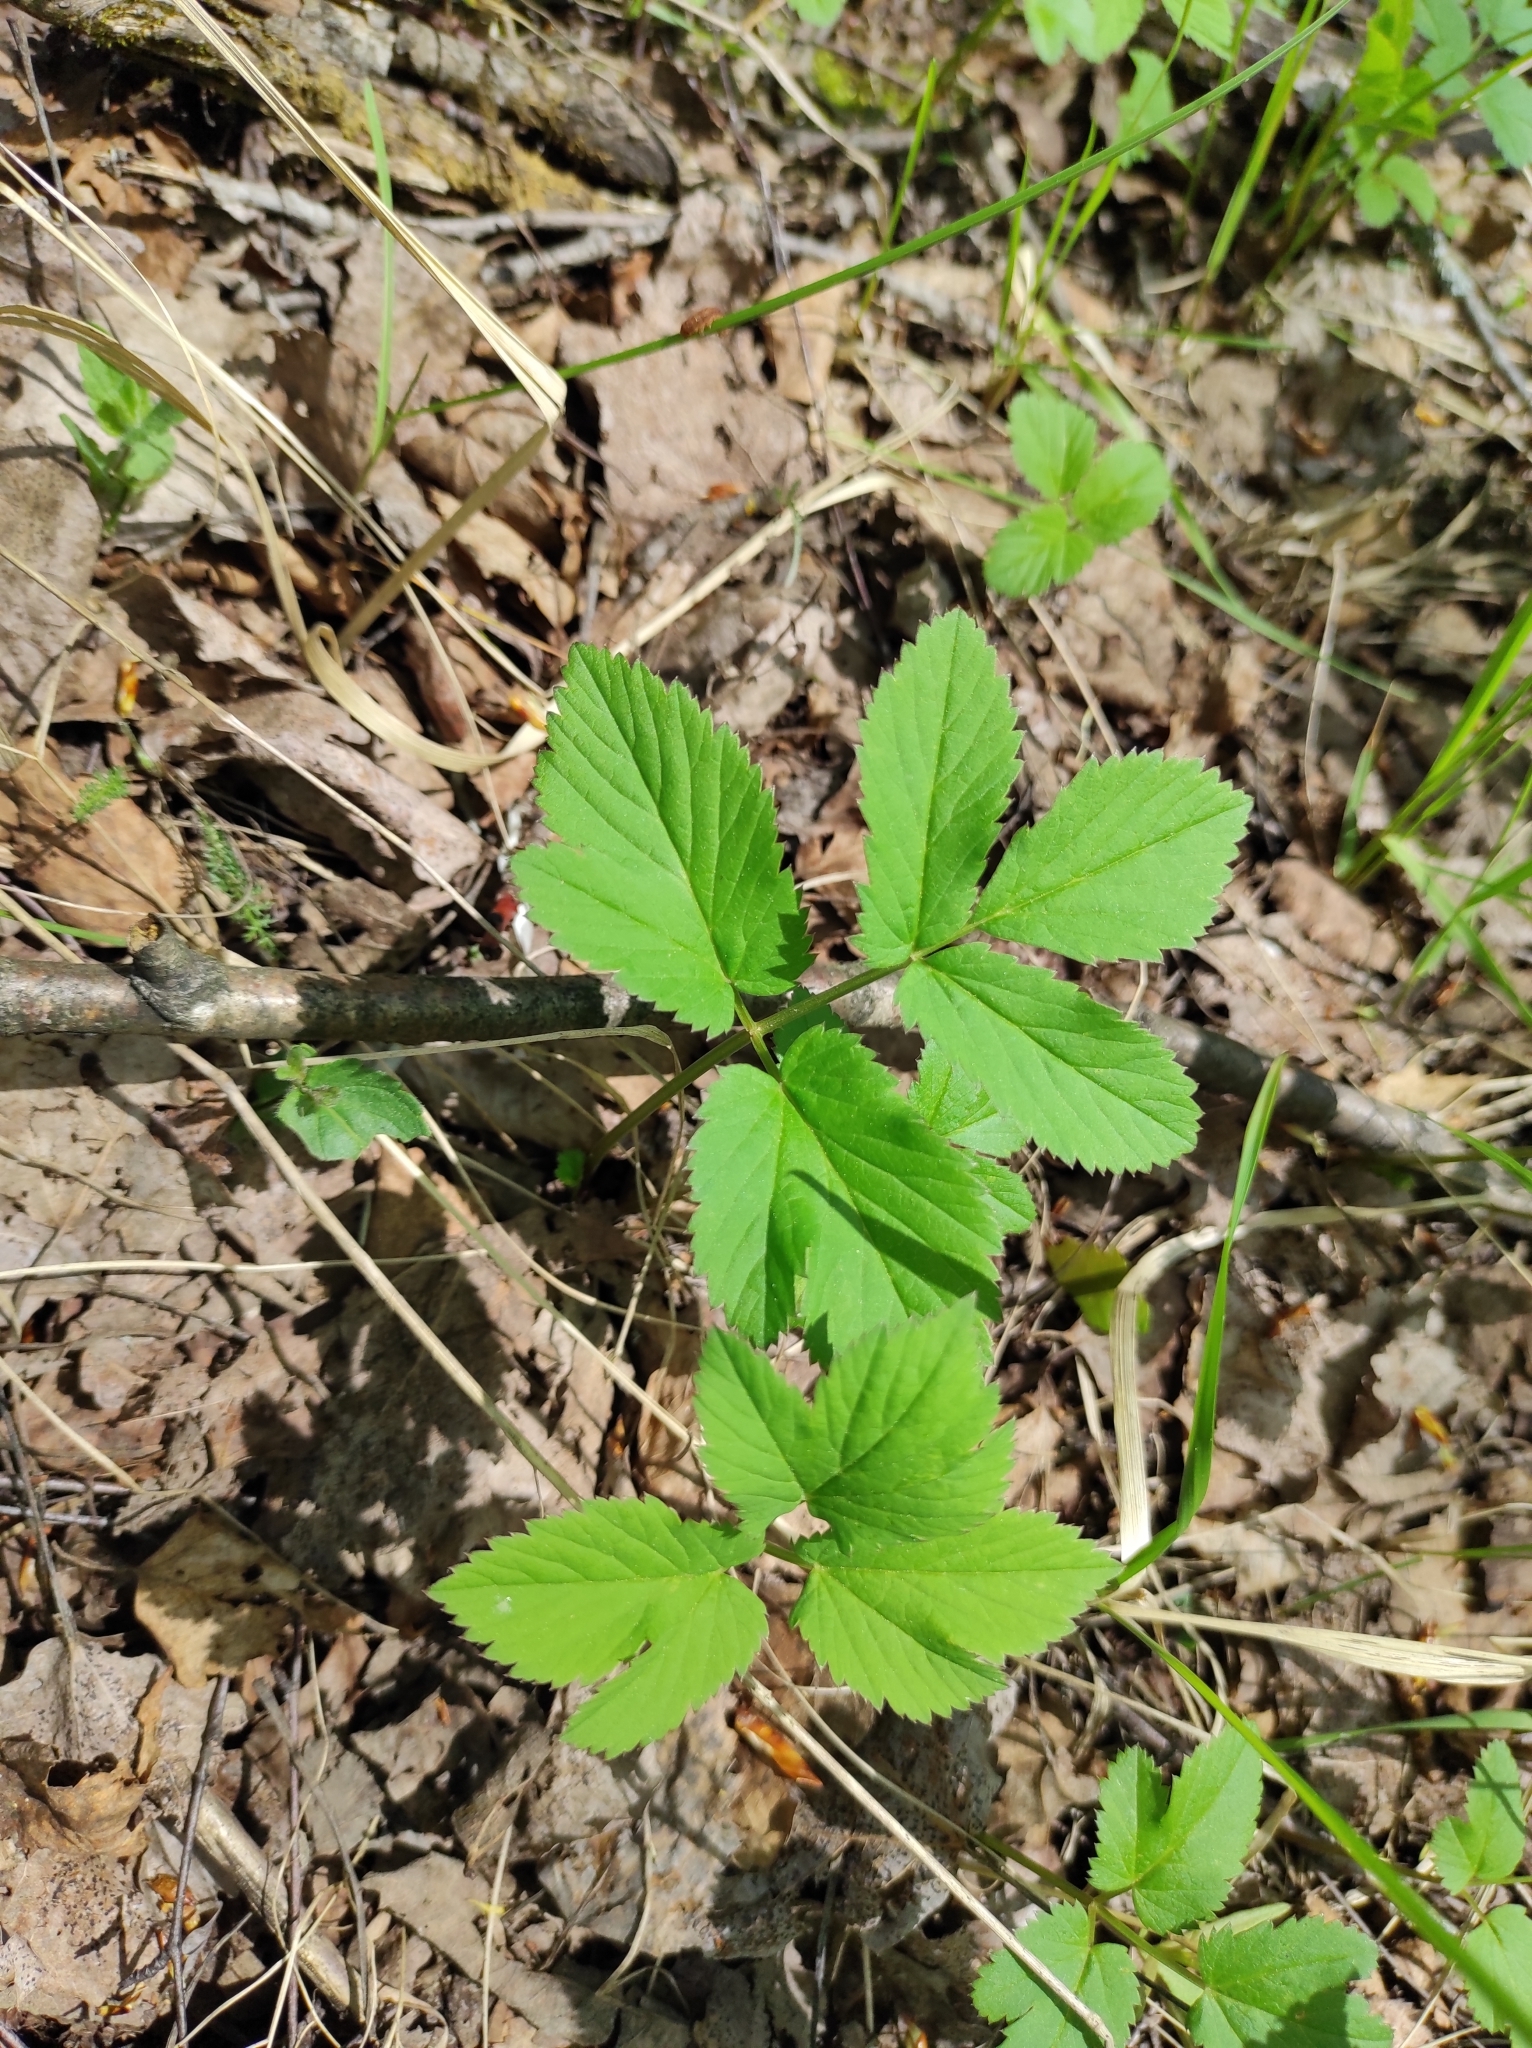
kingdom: Plantae
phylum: Tracheophyta
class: Magnoliopsida
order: Apiales
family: Apiaceae
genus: Aegopodium
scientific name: Aegopodium podagraria
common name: Ground-elder
